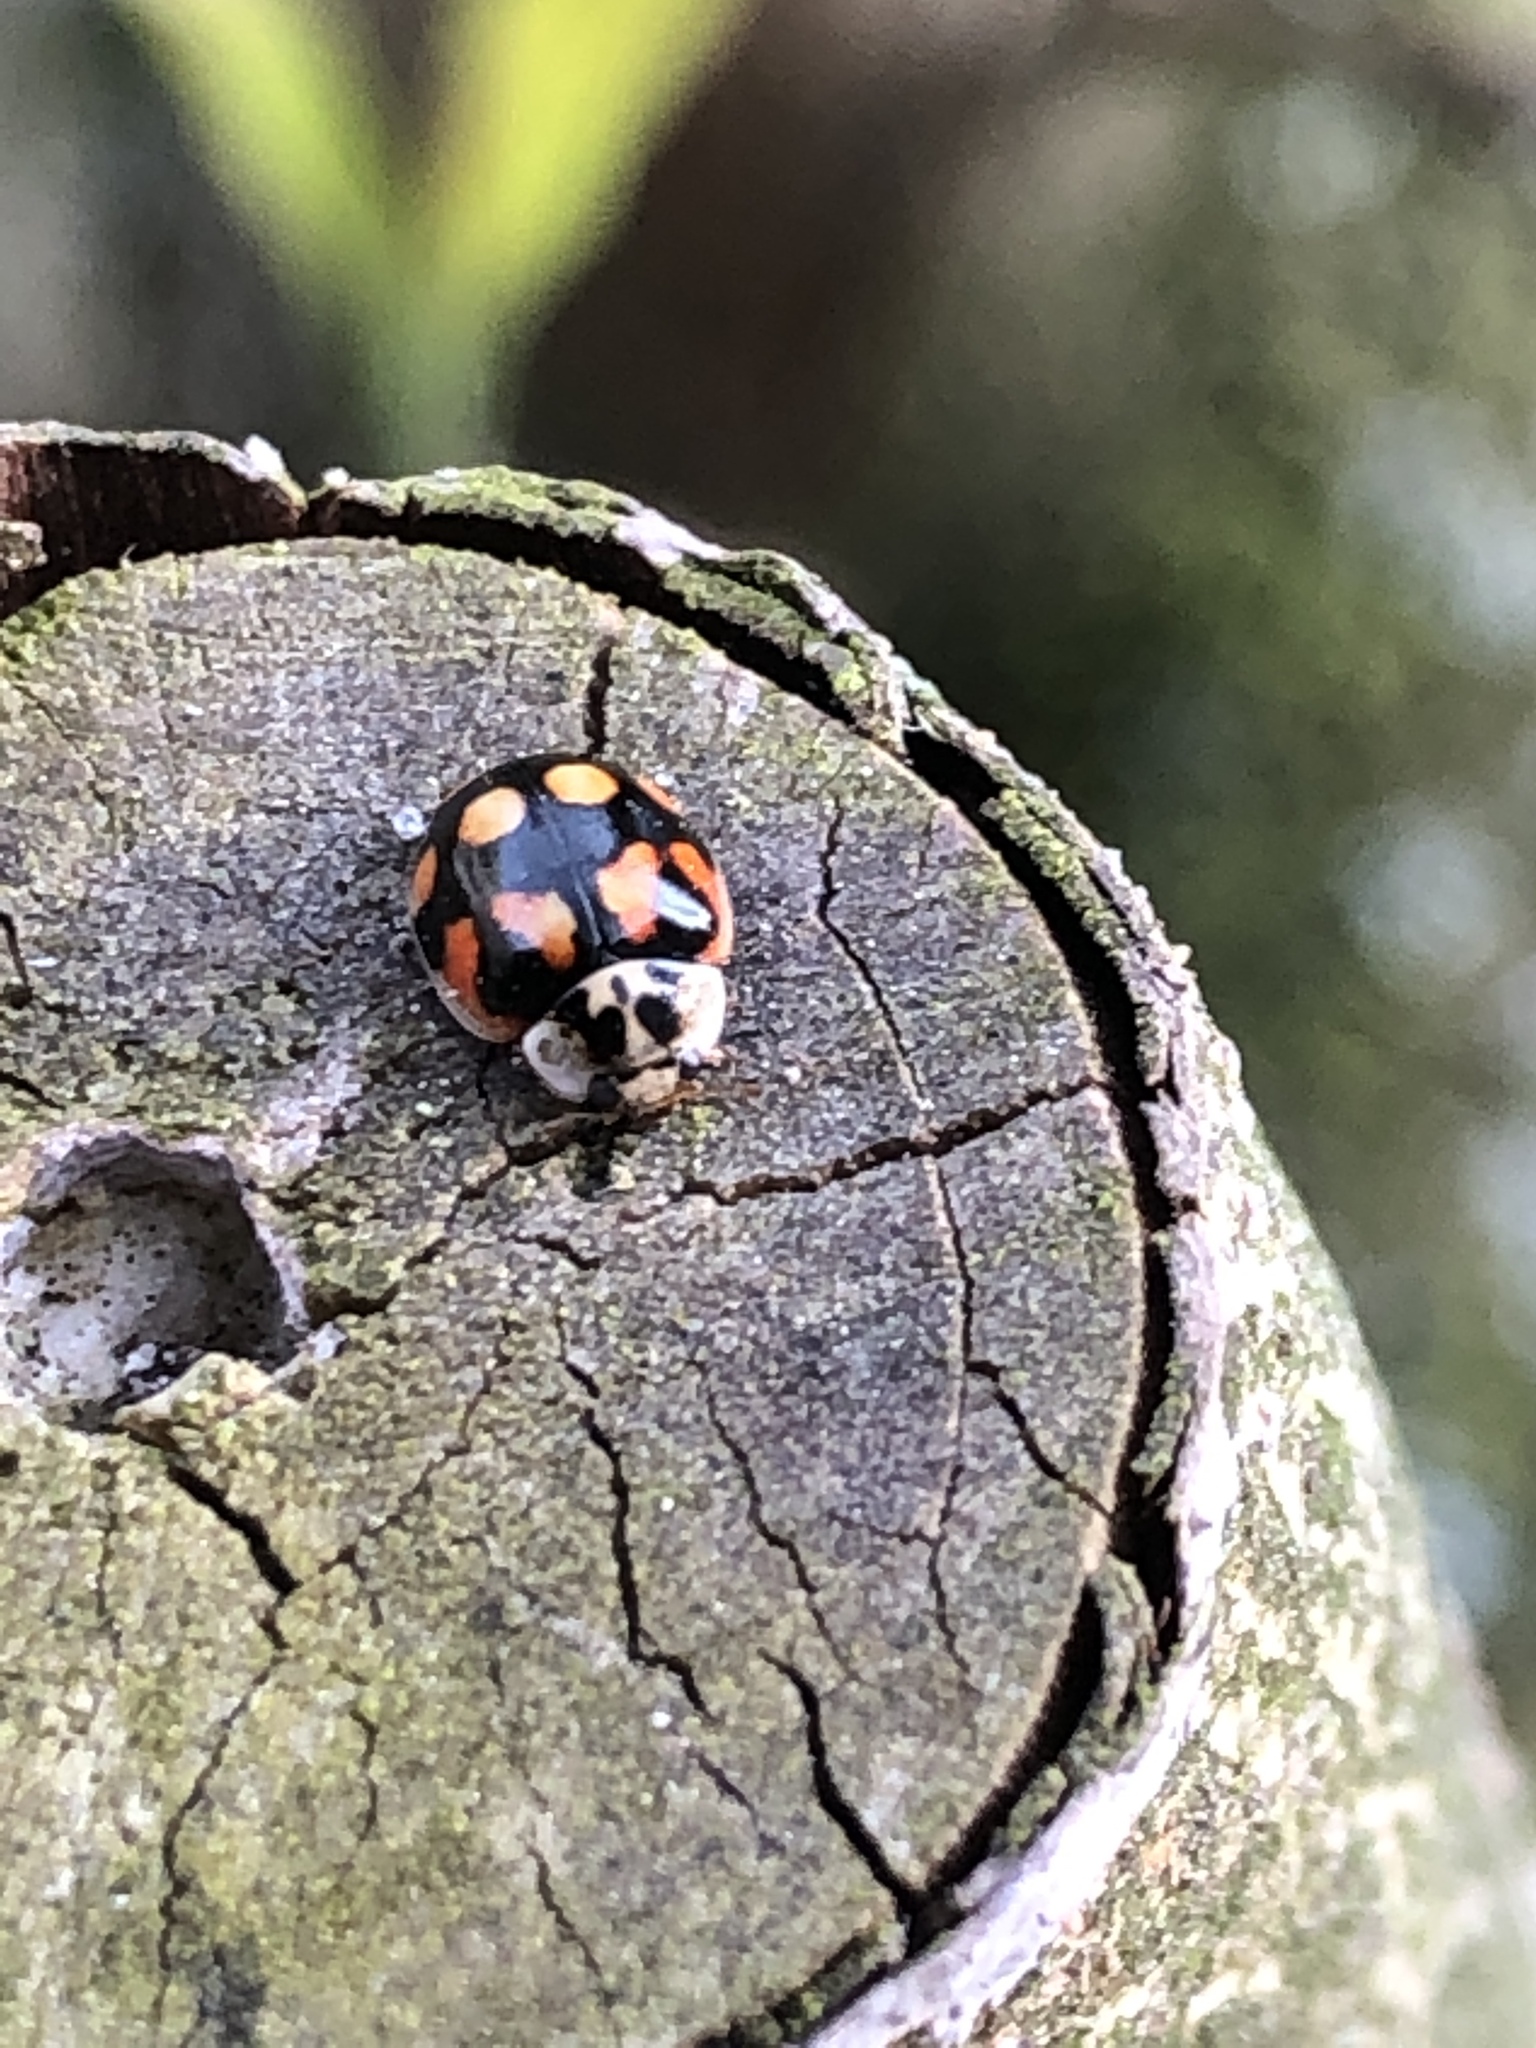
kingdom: Animalia
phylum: Arthropoda
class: Insecta
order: Coleoptera
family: Coccinellidae
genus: Adalia
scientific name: Adalia decempunctata
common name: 10-spot ladybird
